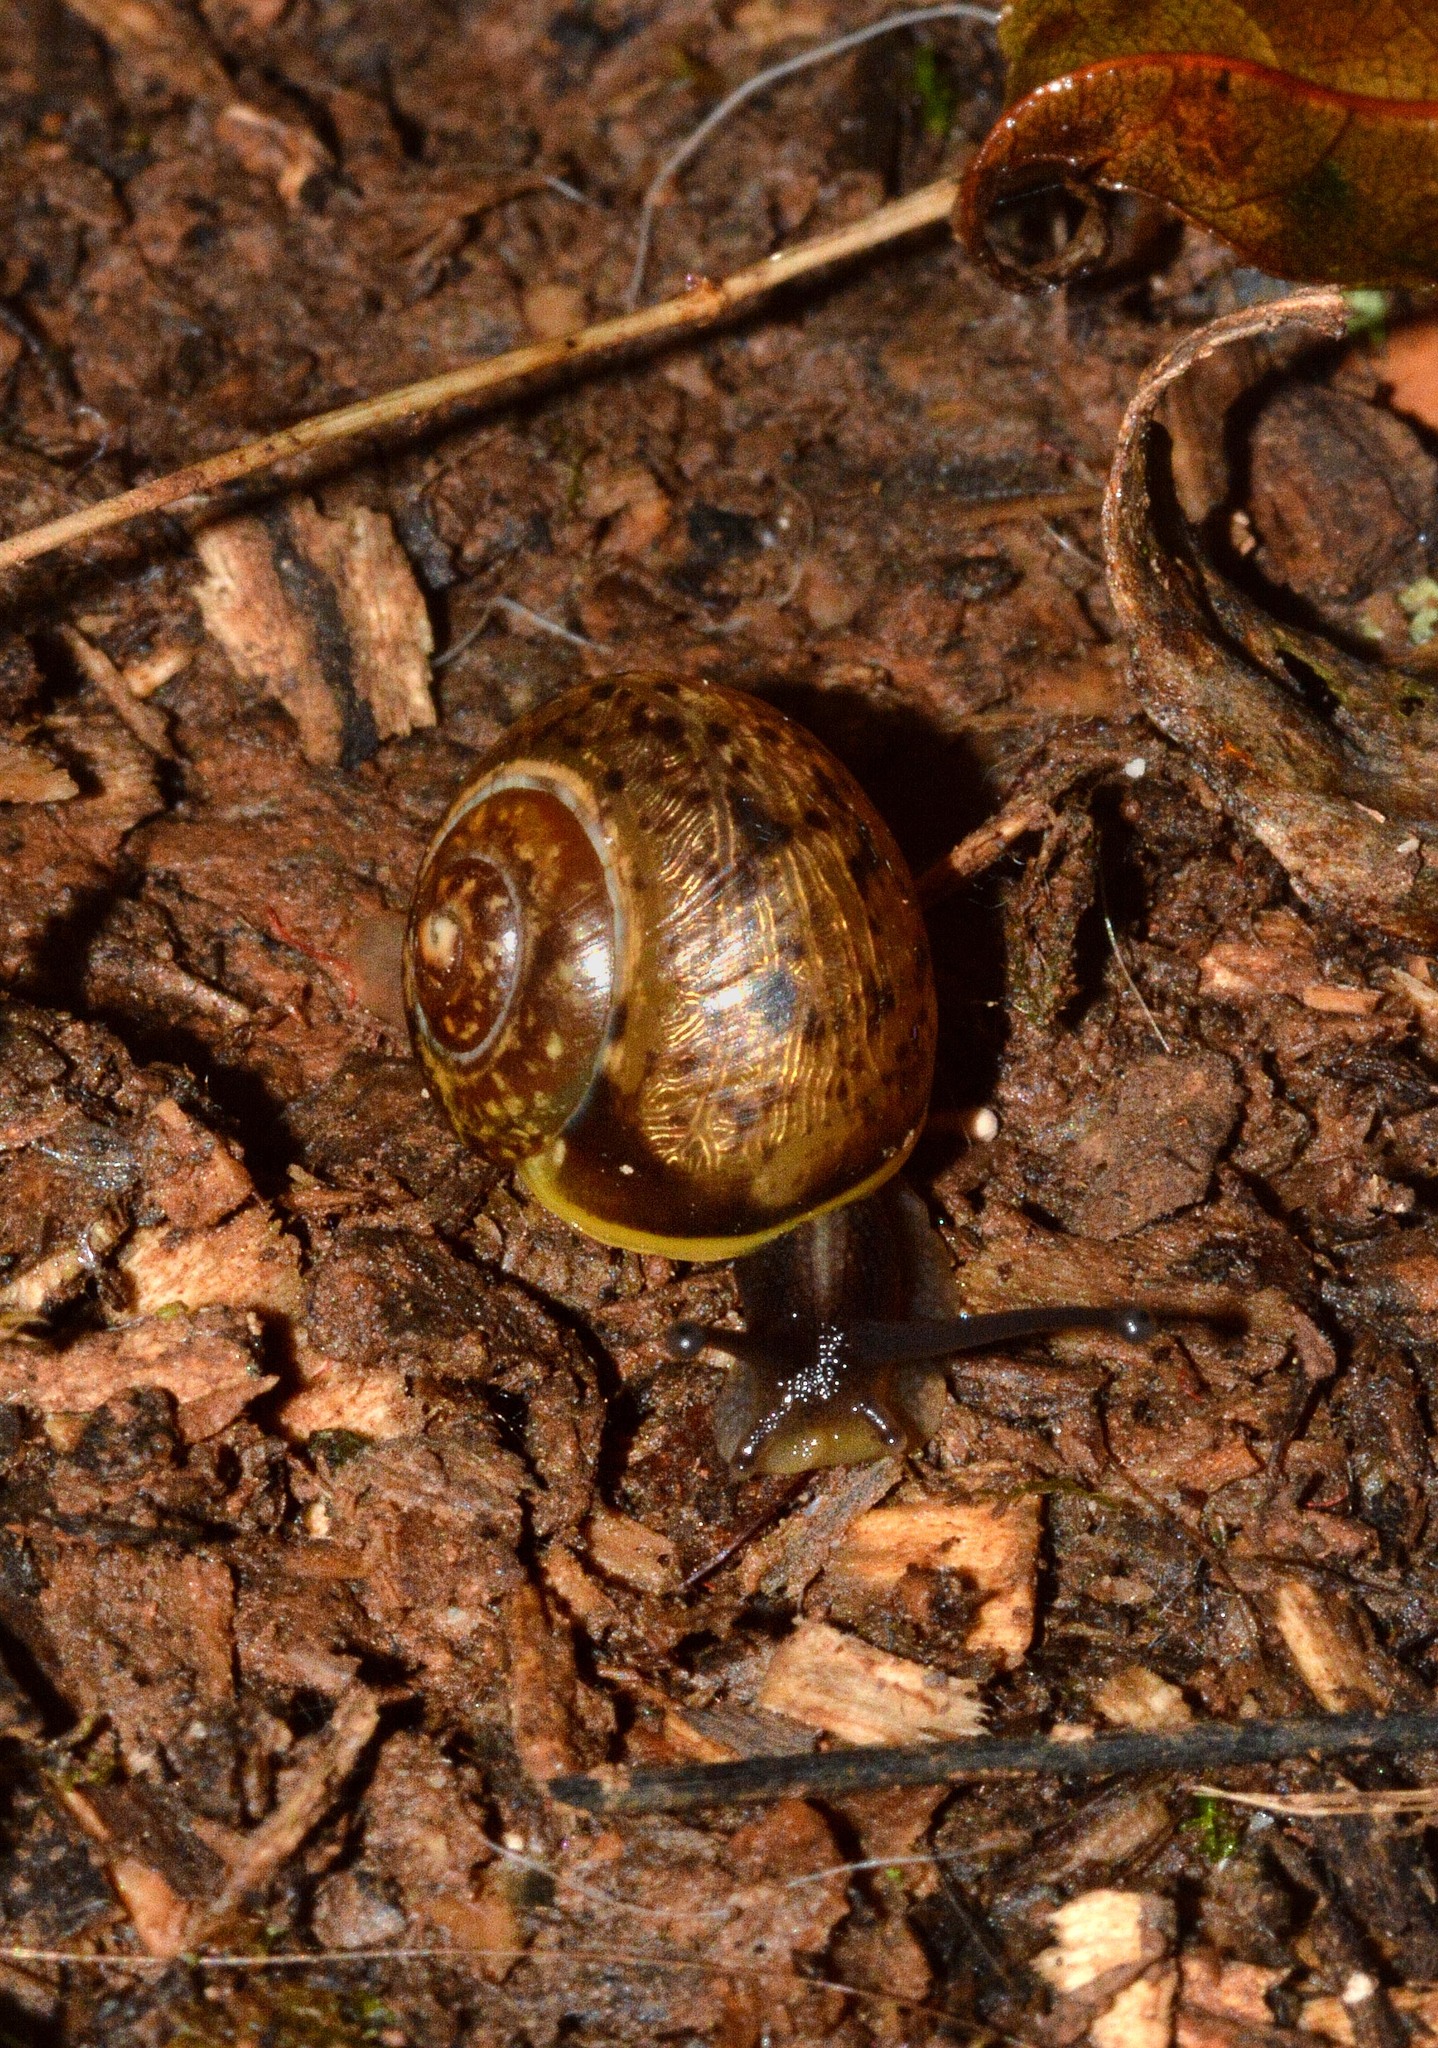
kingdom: Animalia
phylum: Mollusca
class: Gastropoda
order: Stylommatophora
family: Helicidae
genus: Arianta
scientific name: Arianta arbustorum
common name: Copse snail
